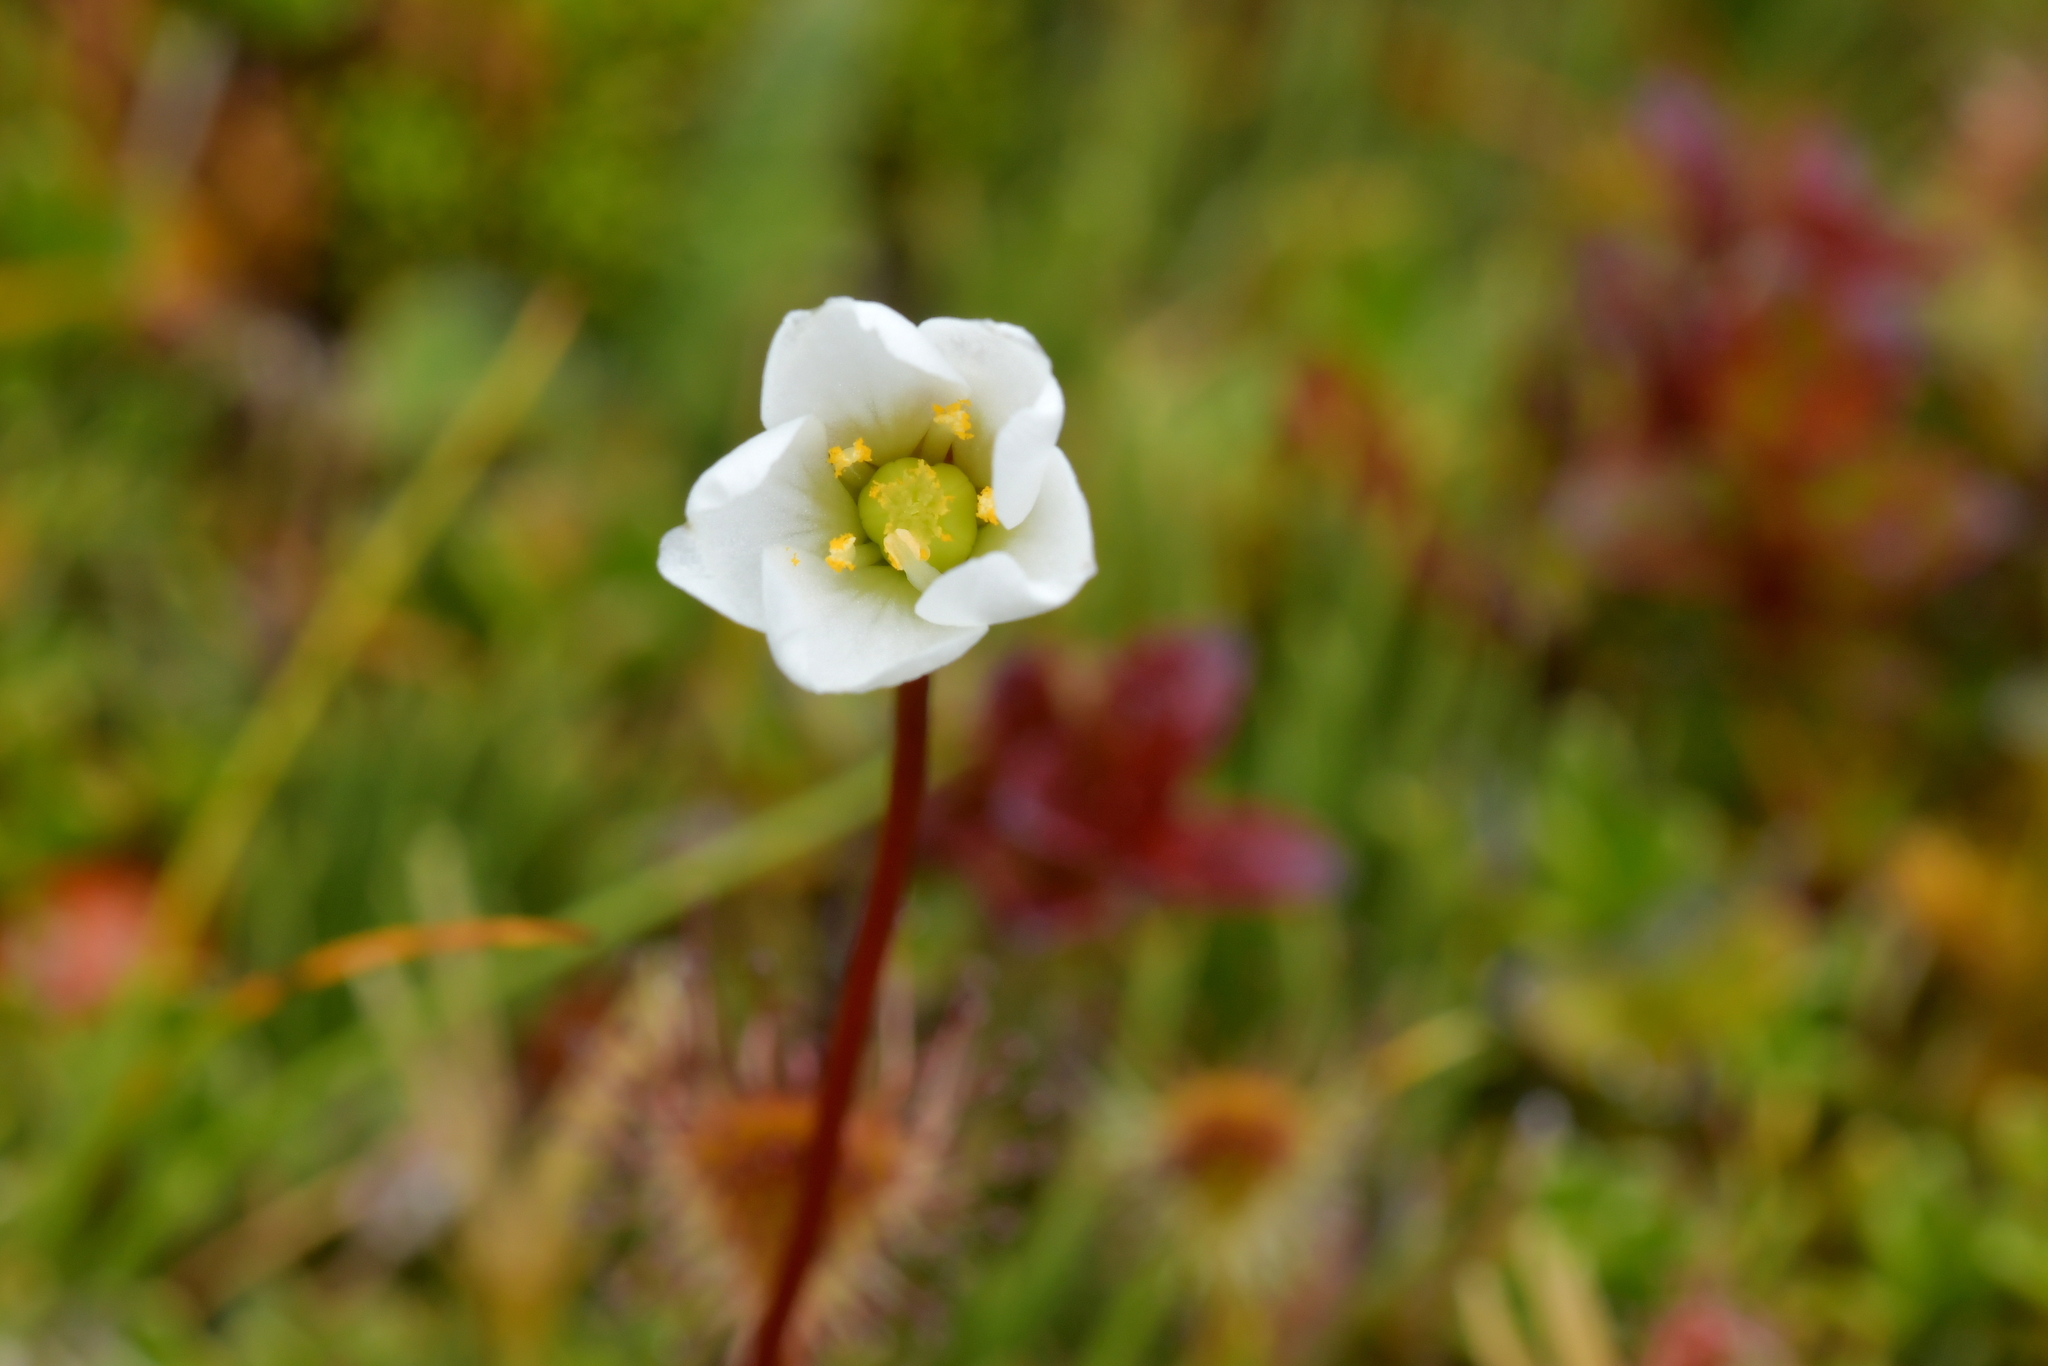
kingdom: Plantae
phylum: Tracheophyta
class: Magnoliopsida
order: Caryophyllales
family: Droseraceae
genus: Drosera
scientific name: Drosera stenopetala
